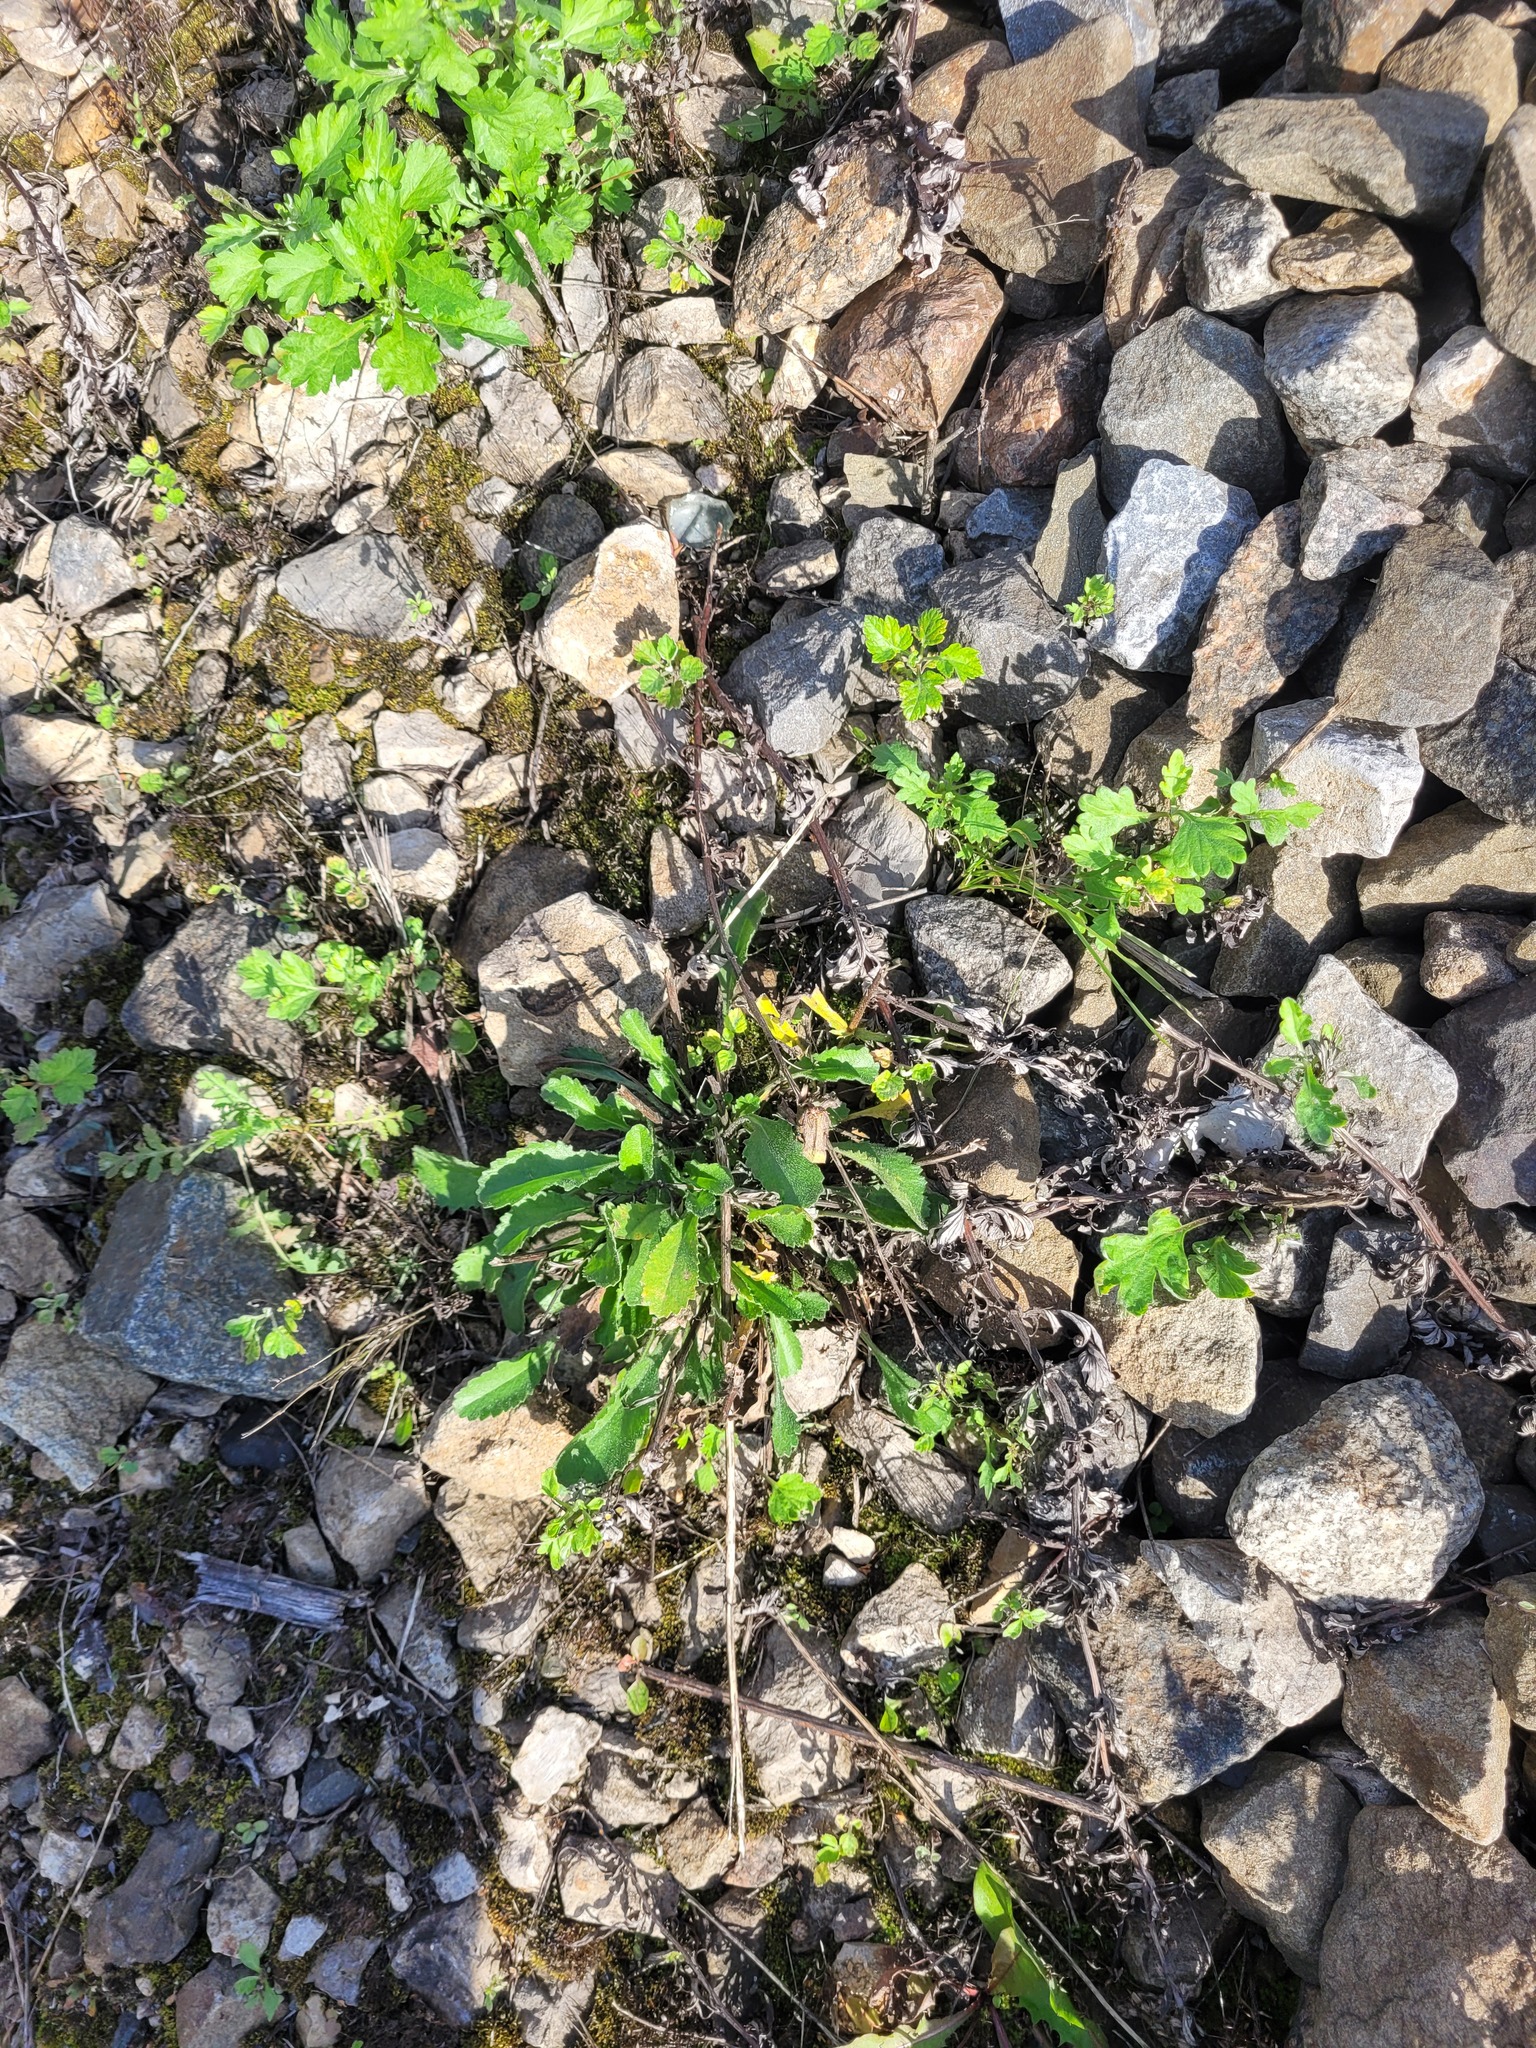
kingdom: Plantae
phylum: Tracheophyta
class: Magnoliopsida
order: Asterales
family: Asteraceae
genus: Leucanthemum
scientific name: Leucanthemum vulgare
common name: Oxeye daisy
